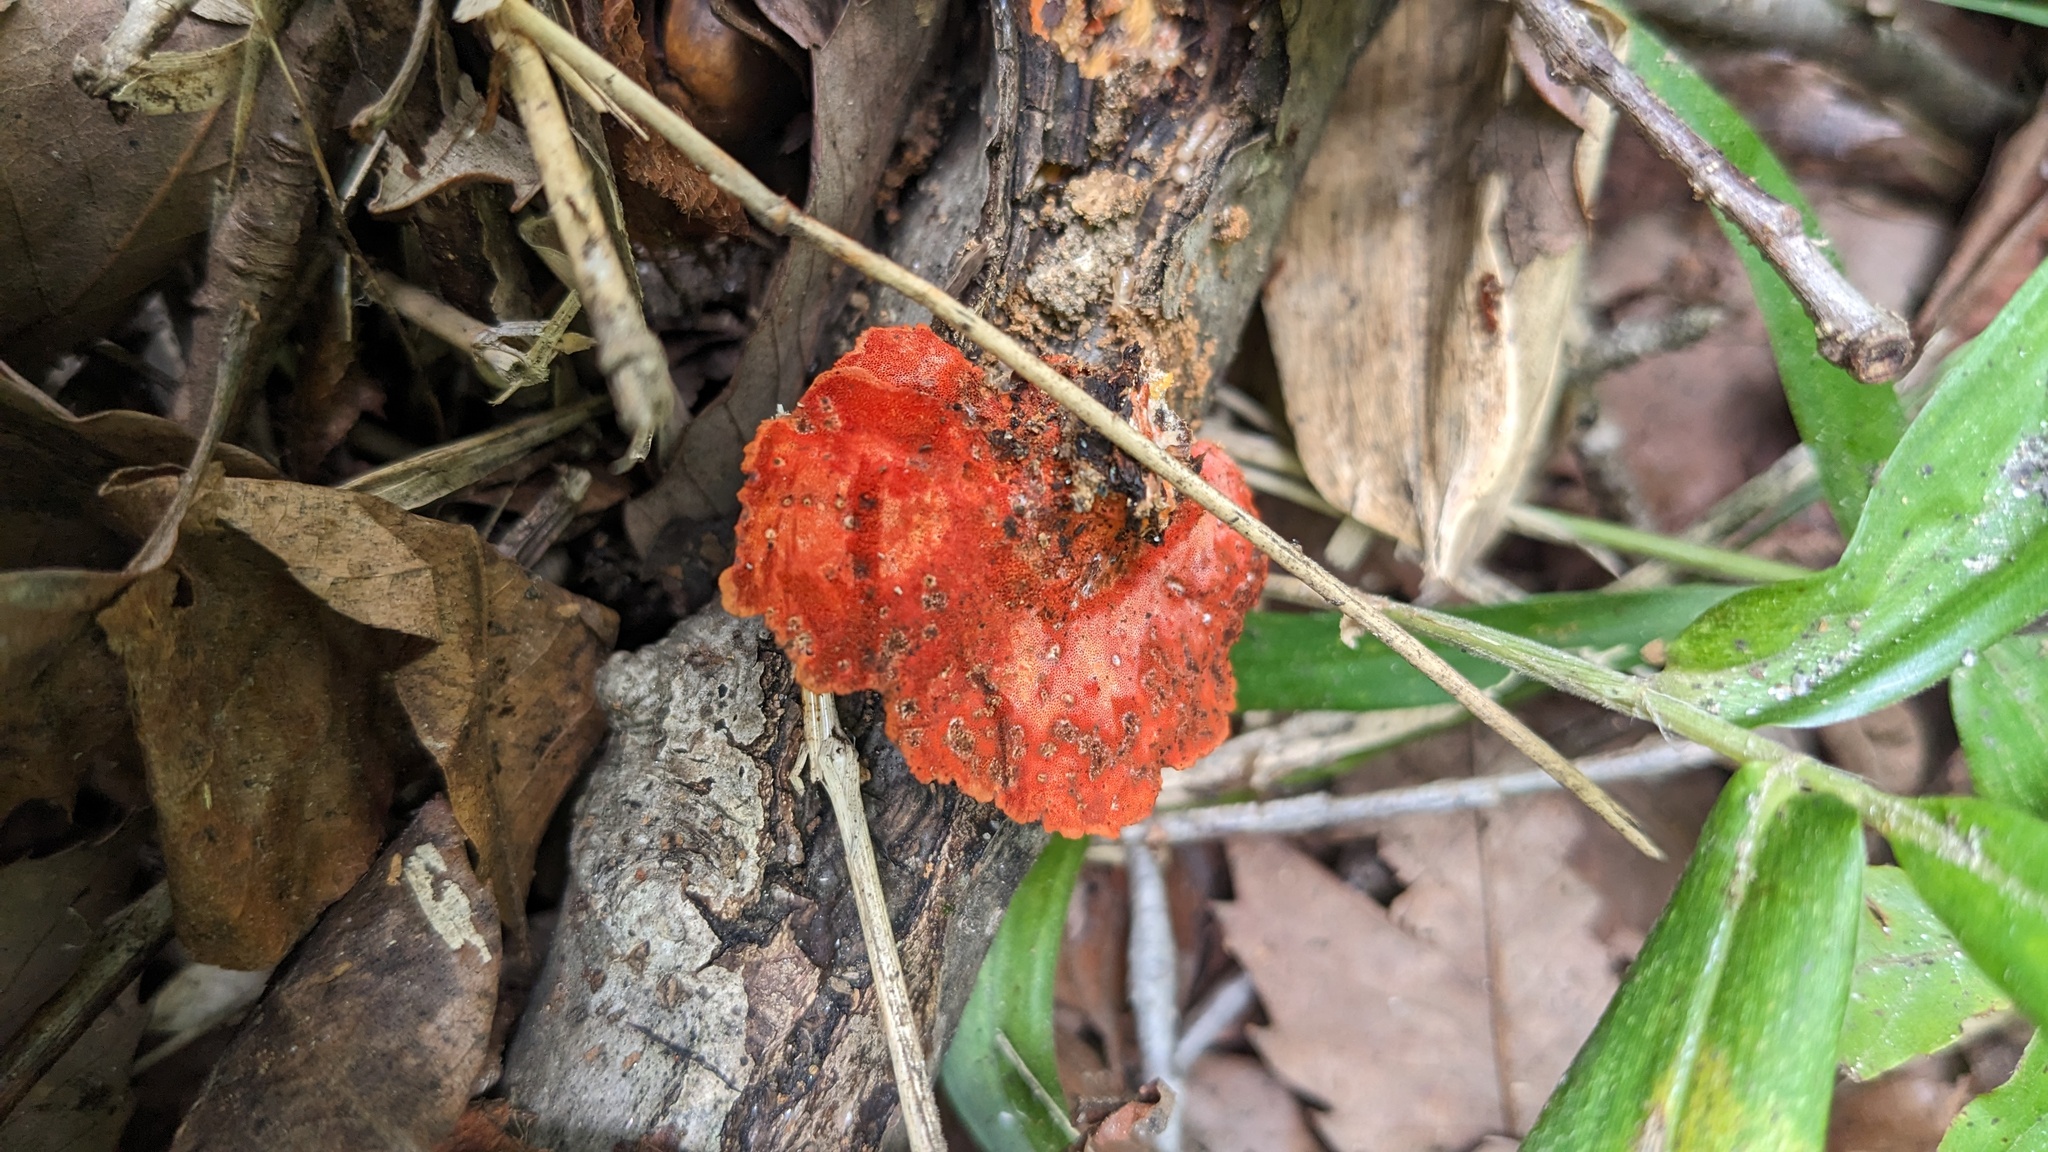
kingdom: Fungi
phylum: Basidiomycota
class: Agaricomycetes
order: Polyporales
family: Polyporaceae
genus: Trametes
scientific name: Trametes coccinea
